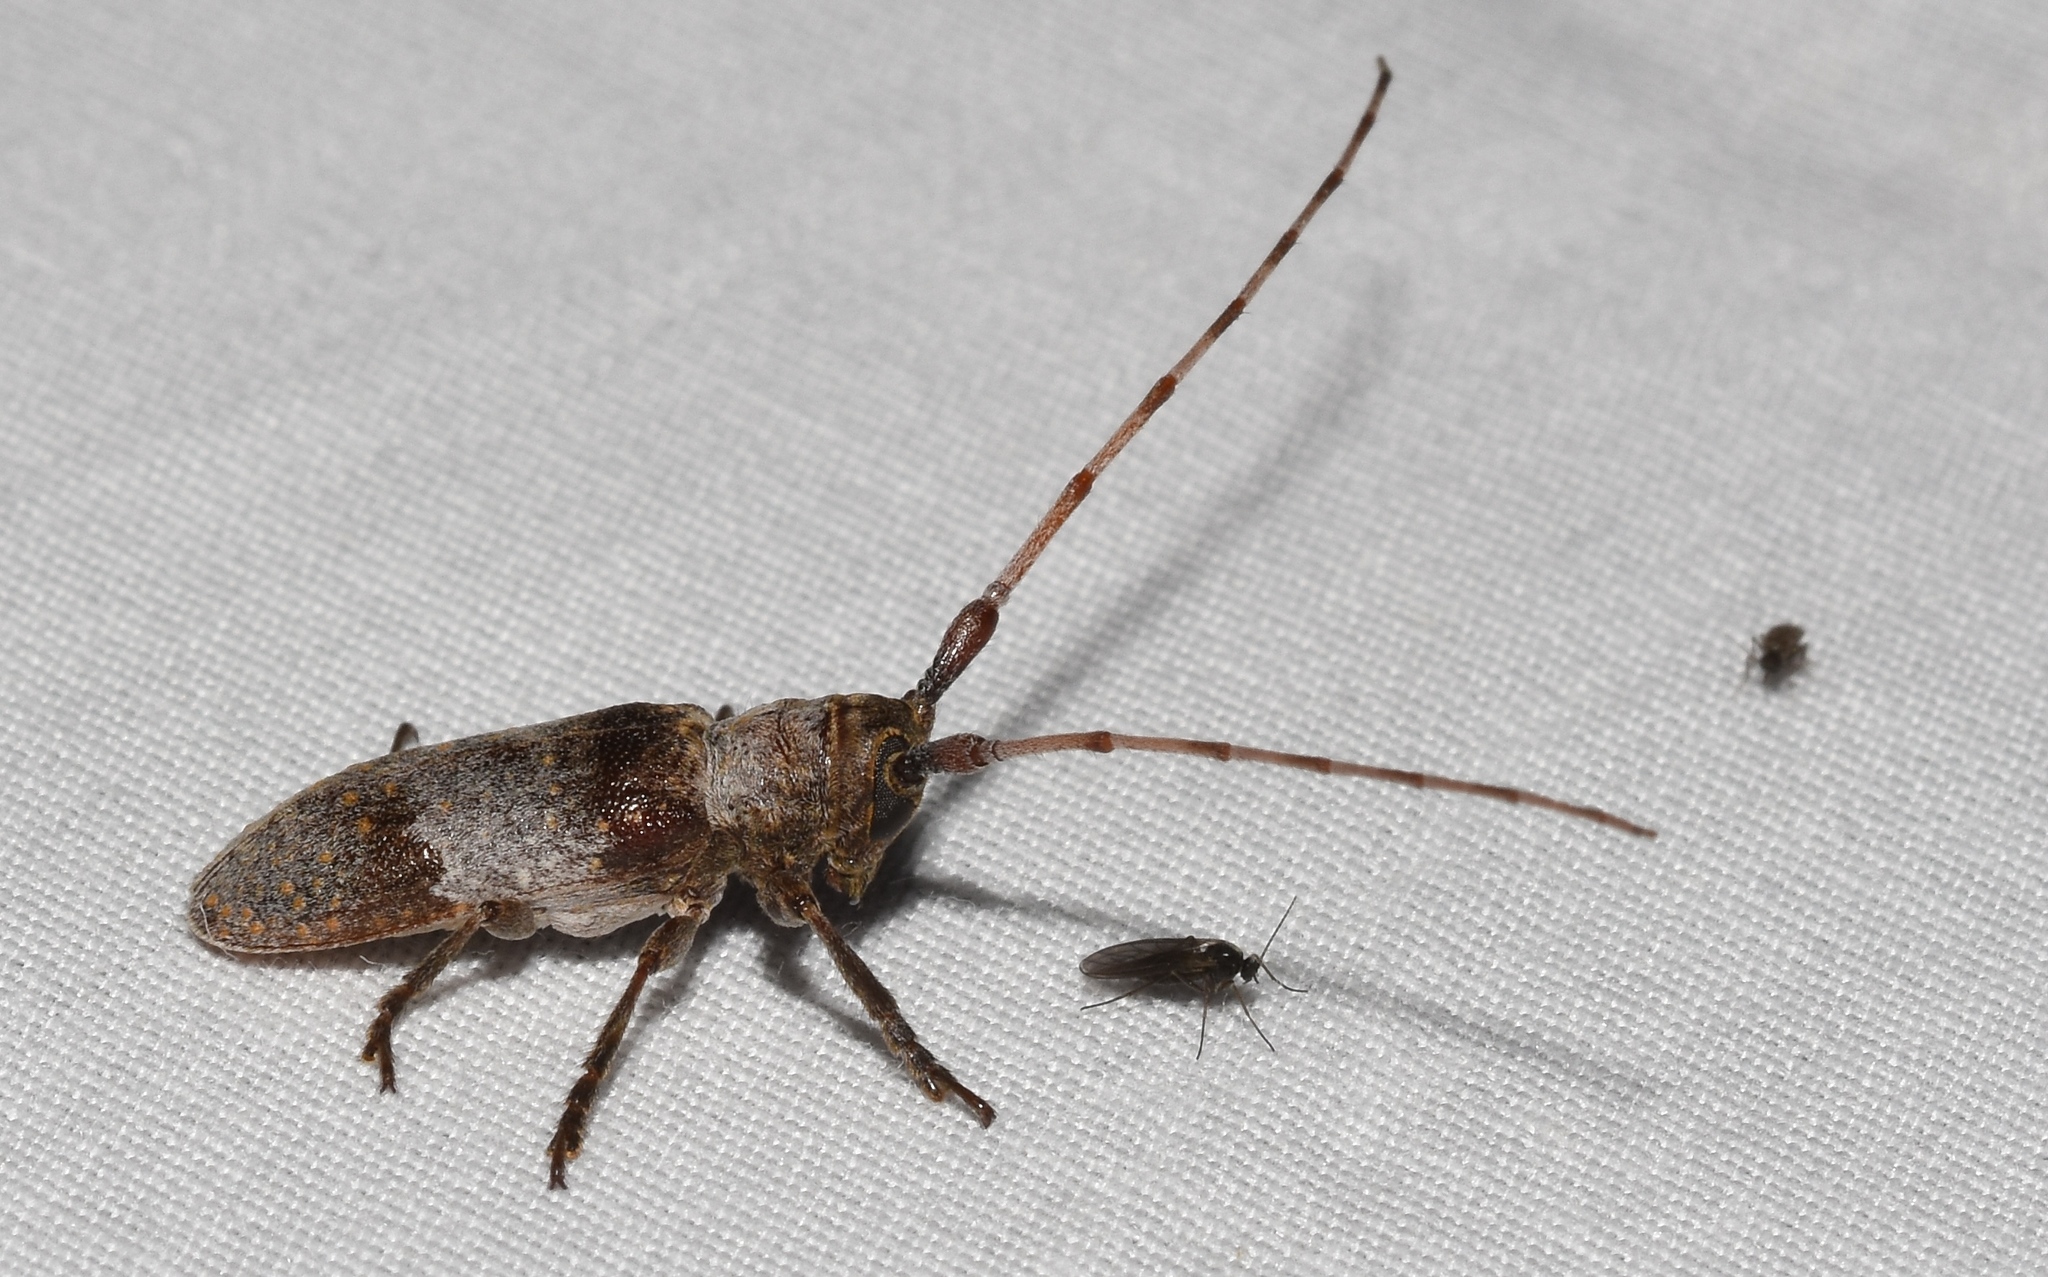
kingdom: Animalia
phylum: Arthropoda
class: Insecta
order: Coleoptera
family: Cerambycidae
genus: Oncideres
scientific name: Oncideres cingulata
